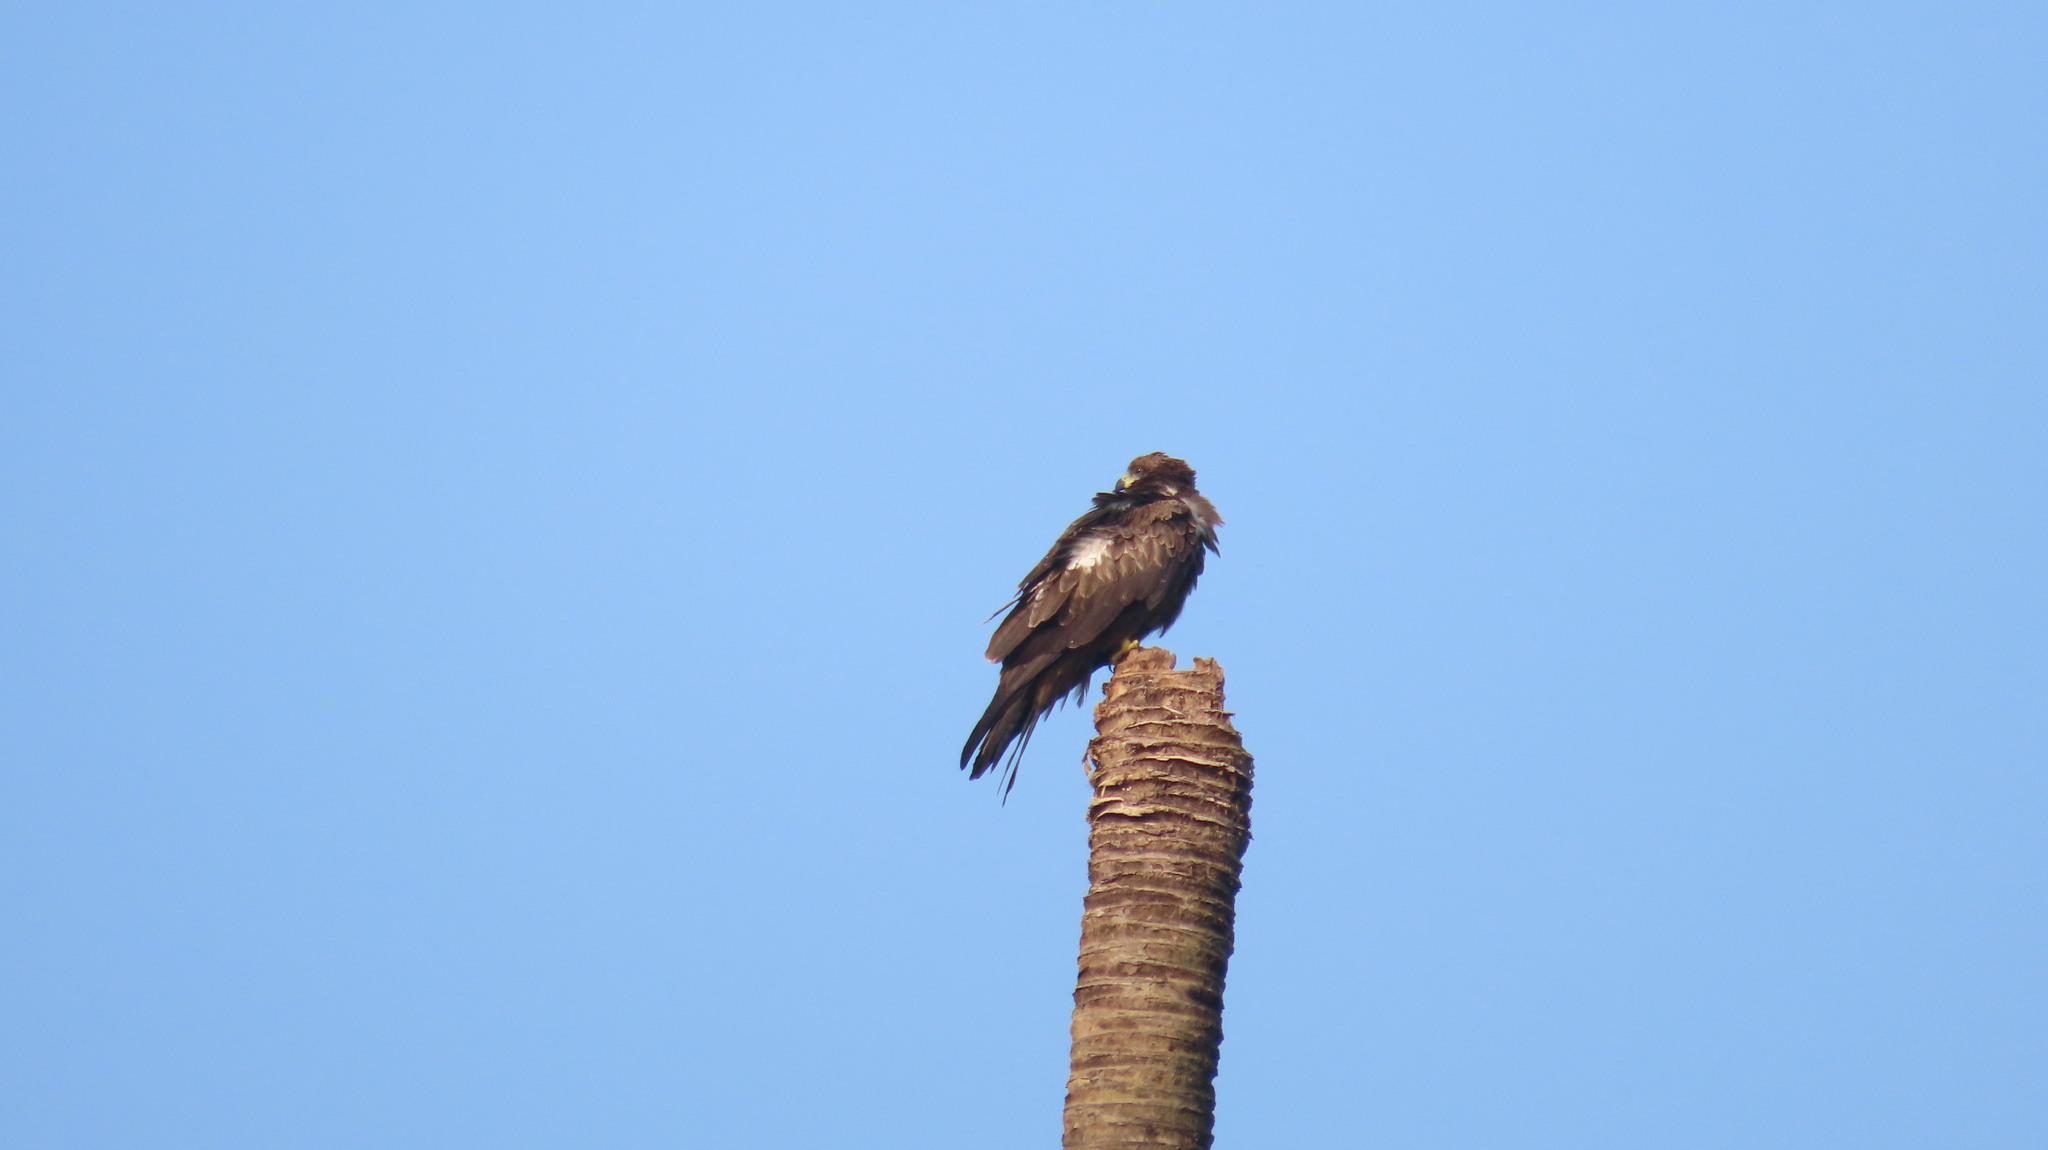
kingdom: Animalia
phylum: Chordata
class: Aves
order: Accipitriformes
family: Accipitridae
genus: Milvus
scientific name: Milvus migrans
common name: Black kite
